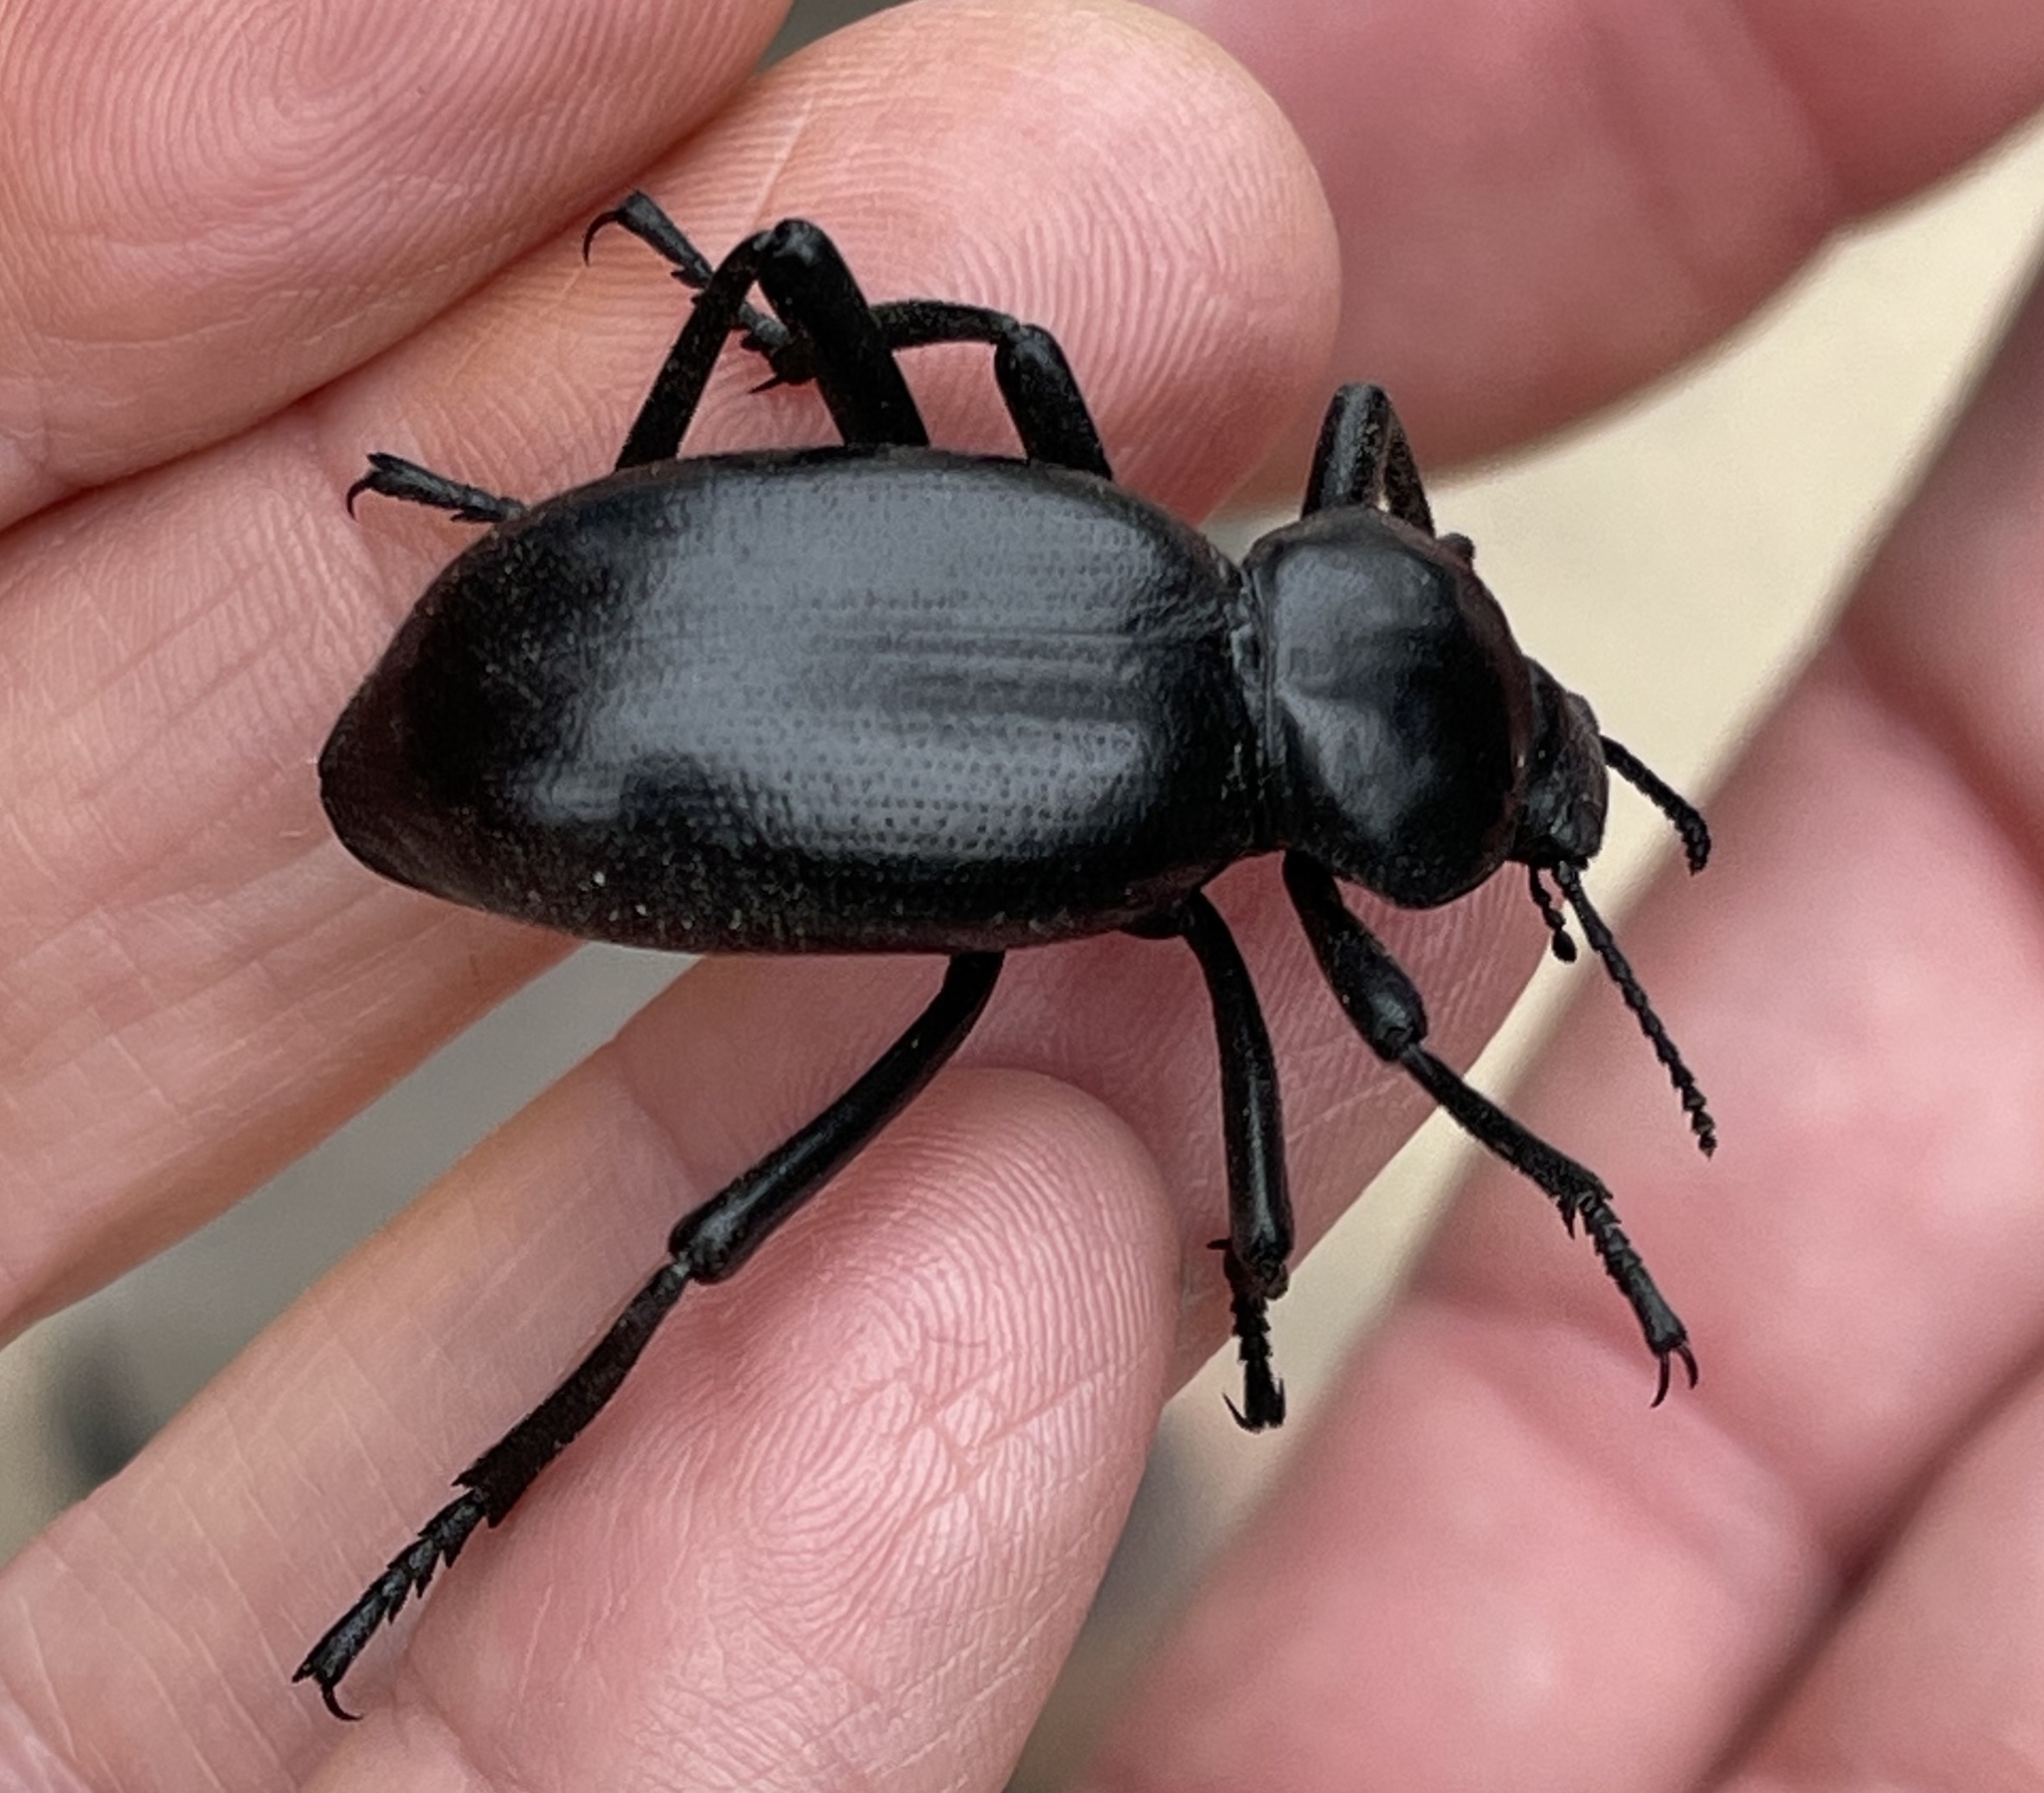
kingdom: Animalia
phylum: Arthropoda
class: Insecta
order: Coleoptera
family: Tenebrionidae
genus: Eleodes
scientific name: Eleodes grandicollis
